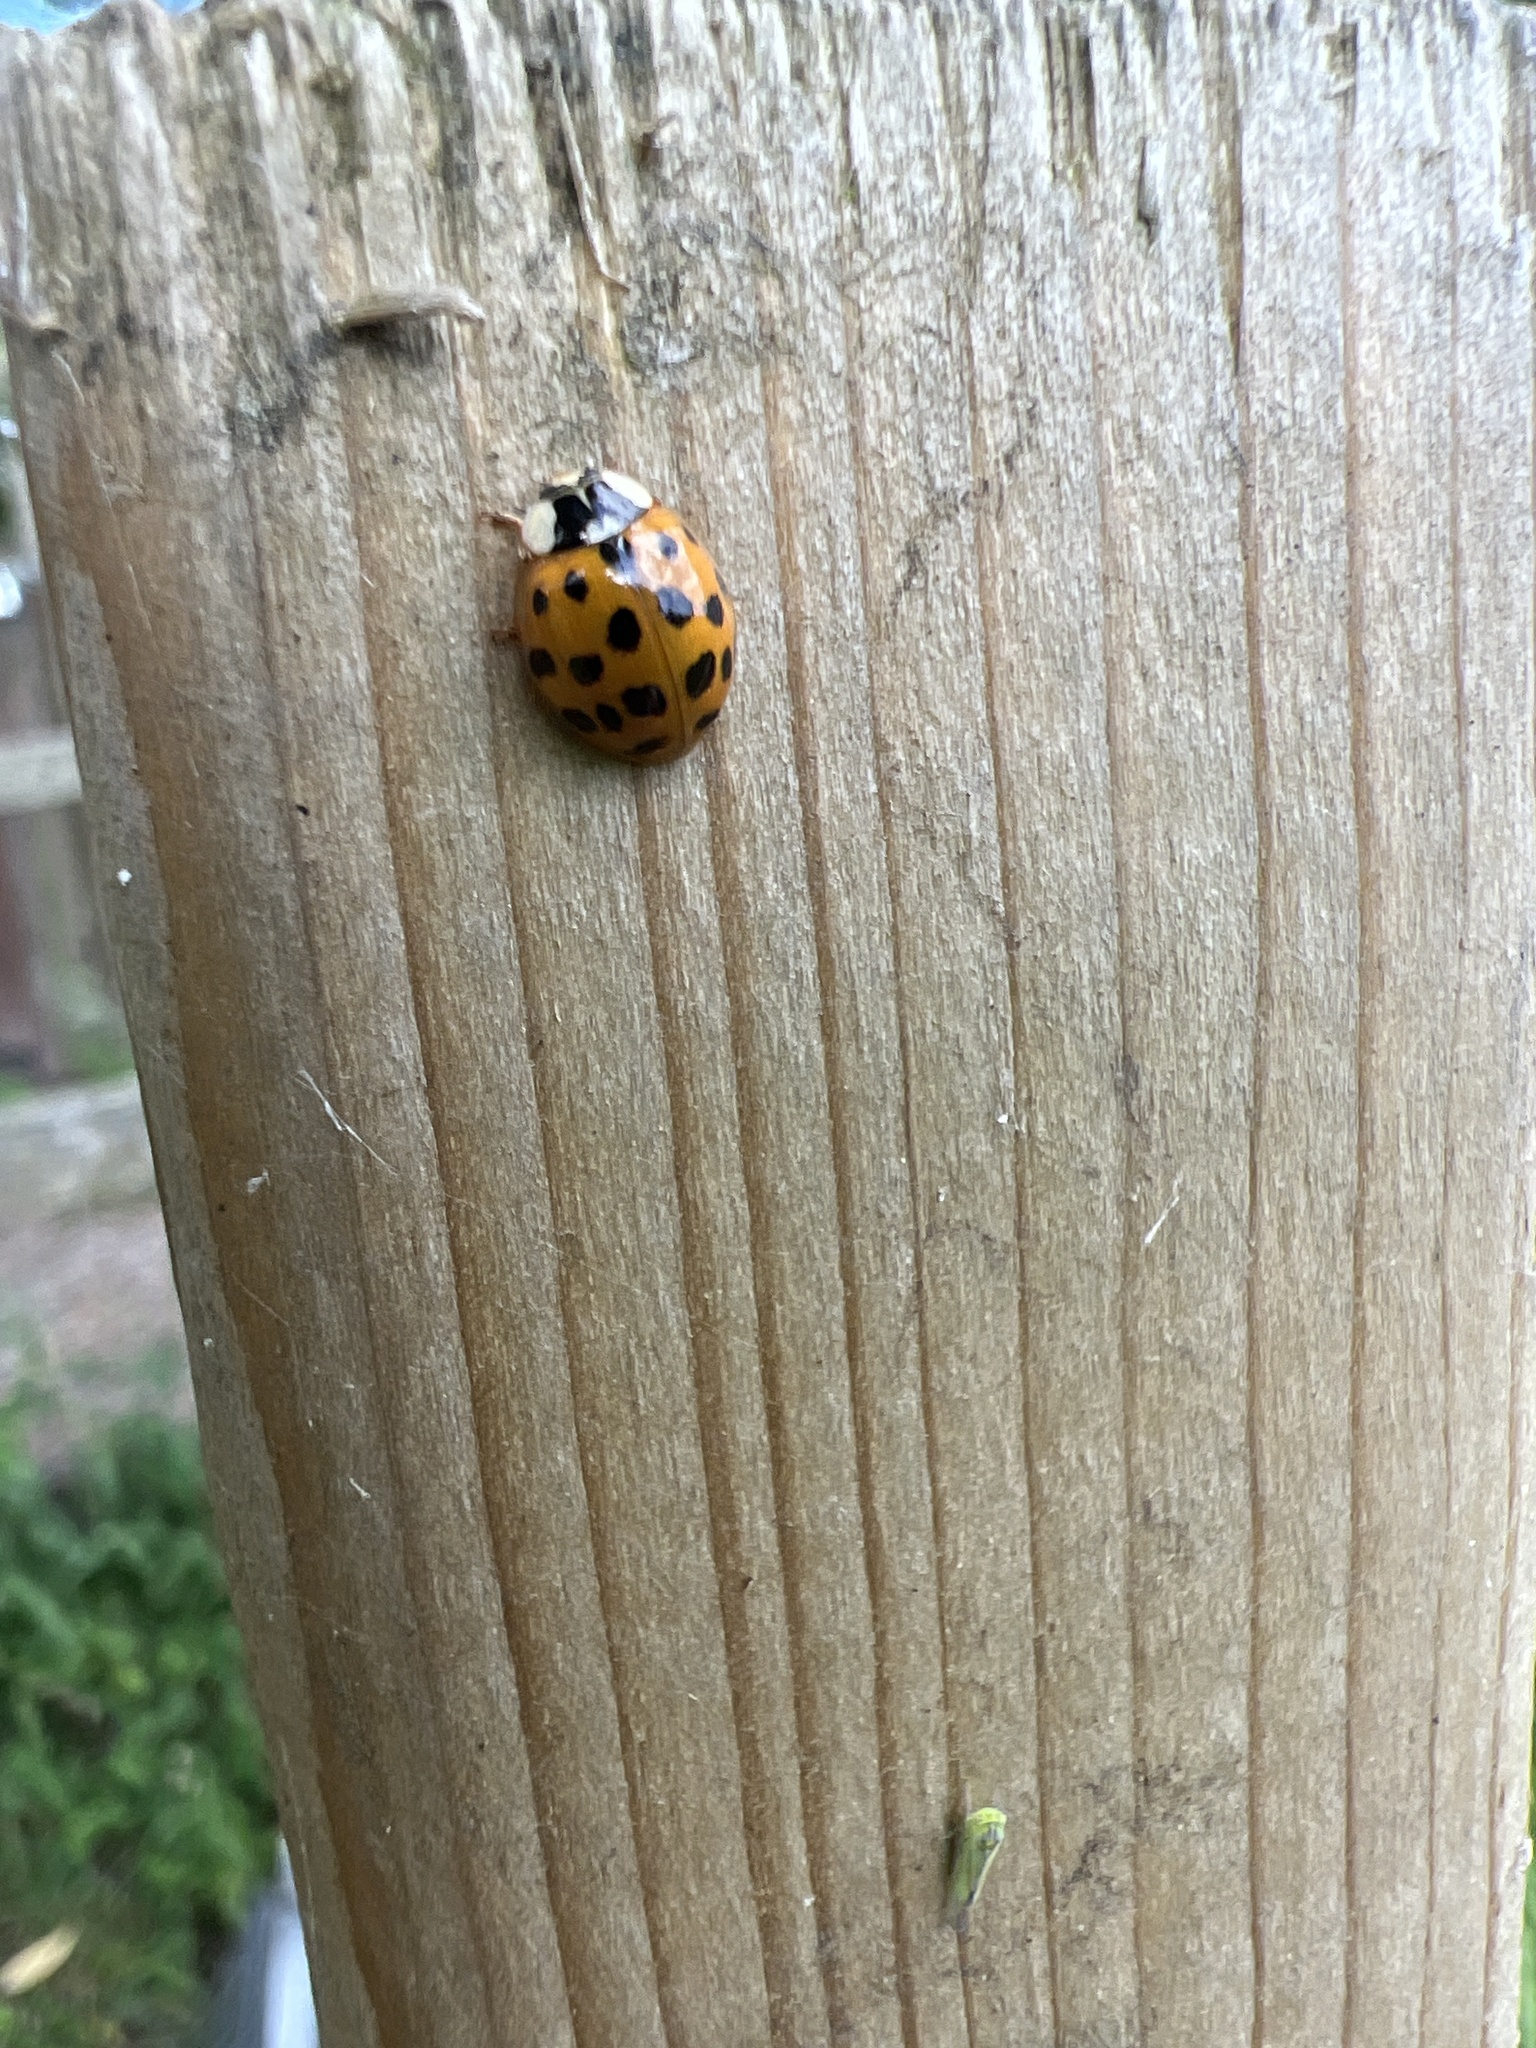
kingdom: Animalia
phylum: Arthropoda
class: Insecta
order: Coleoptera
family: Coccinellidae
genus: Harmonia
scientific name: Harmonia axyridis
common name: Harlequin ladybird
